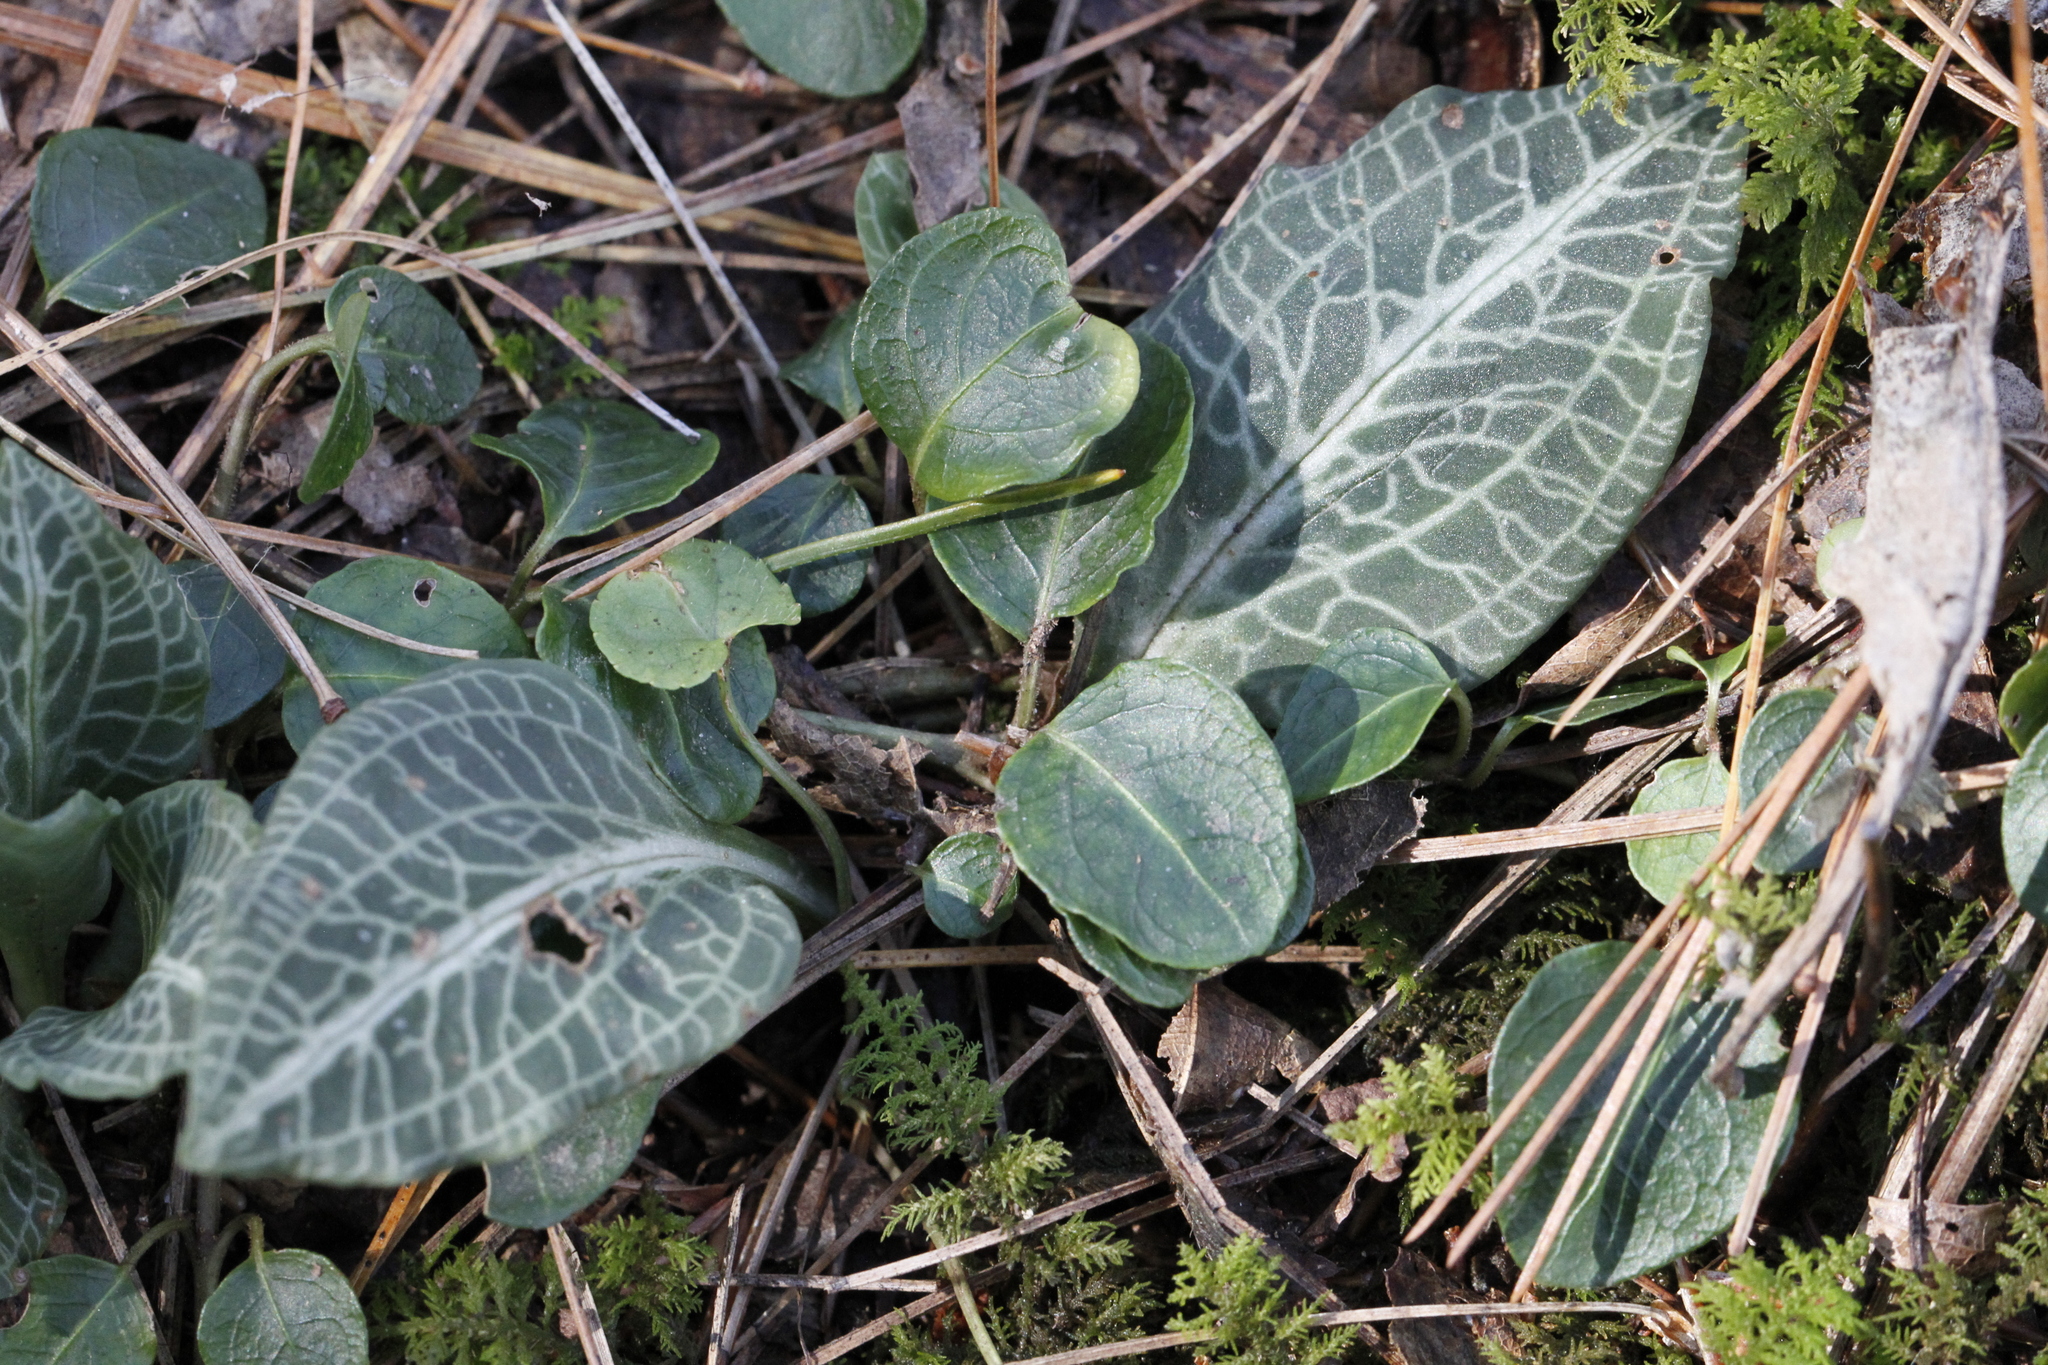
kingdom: Plantae
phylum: Tracheophyta
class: Liliopsida
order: Asparagales
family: Orchidaceae
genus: Goodyera
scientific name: Goodyera pubescens
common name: Downy rattlesnake-plantain
